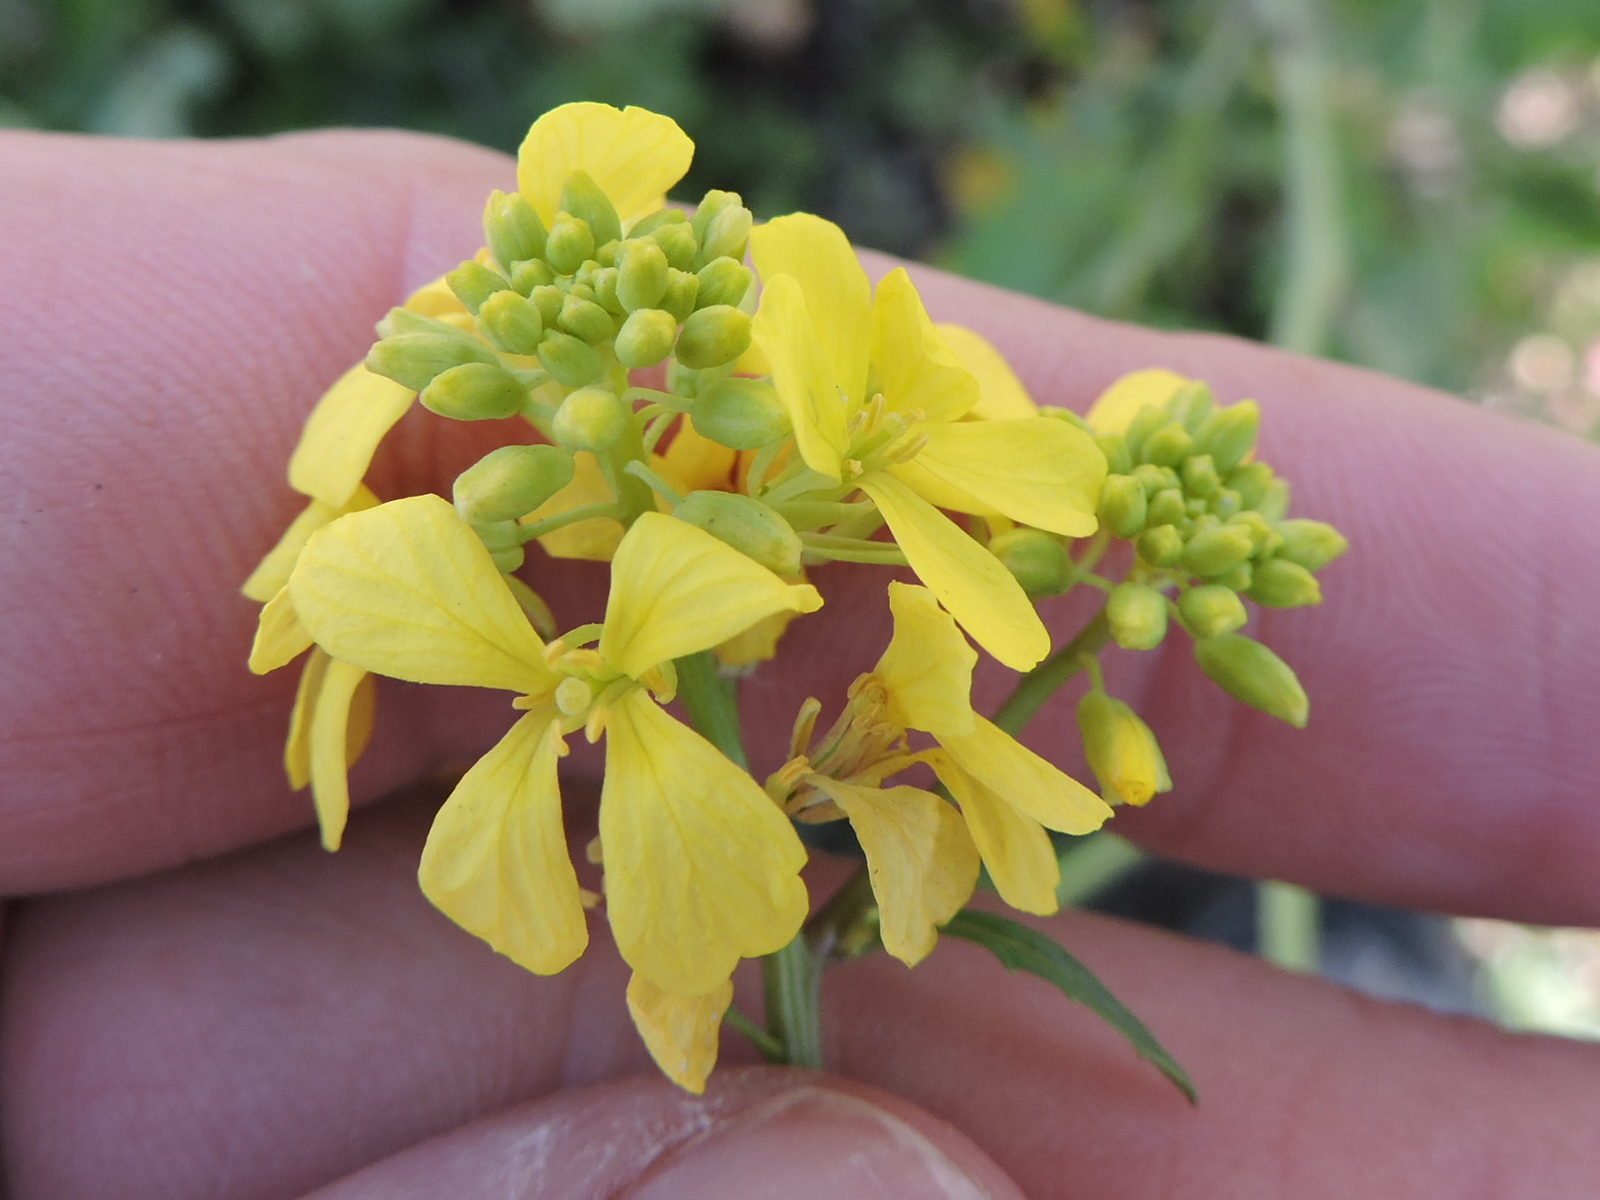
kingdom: Plantae
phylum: Tracheophyta
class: Magnoliopsida
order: Brassicales
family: Brassicaceae
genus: Rapistrum
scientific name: Rapistrum rugosum
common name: Annual bastardcabbage
